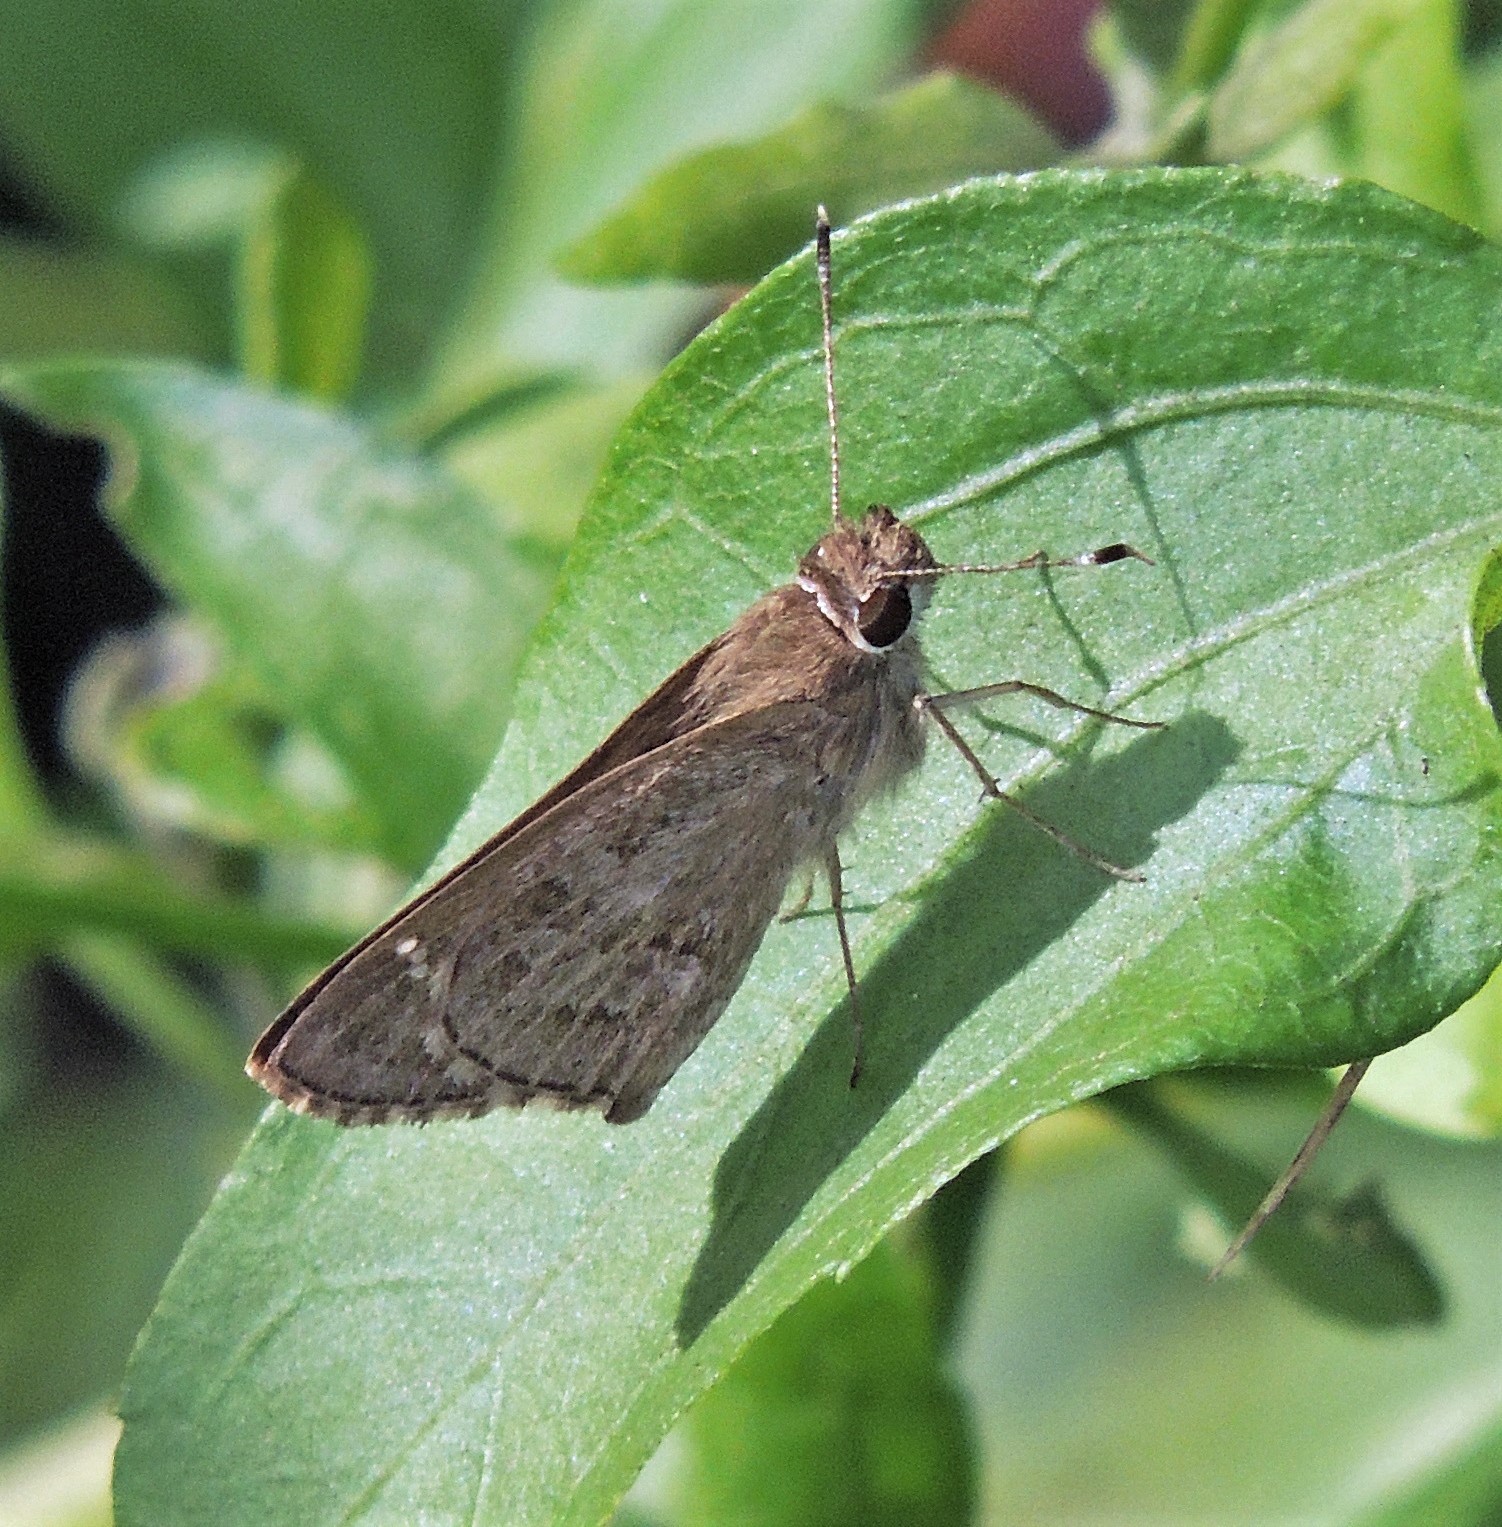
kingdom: Animalia
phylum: Arthropoda
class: Insecta
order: Lepidoptera
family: Hesperiidae
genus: Cymaenes
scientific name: Cymaenes gisca
